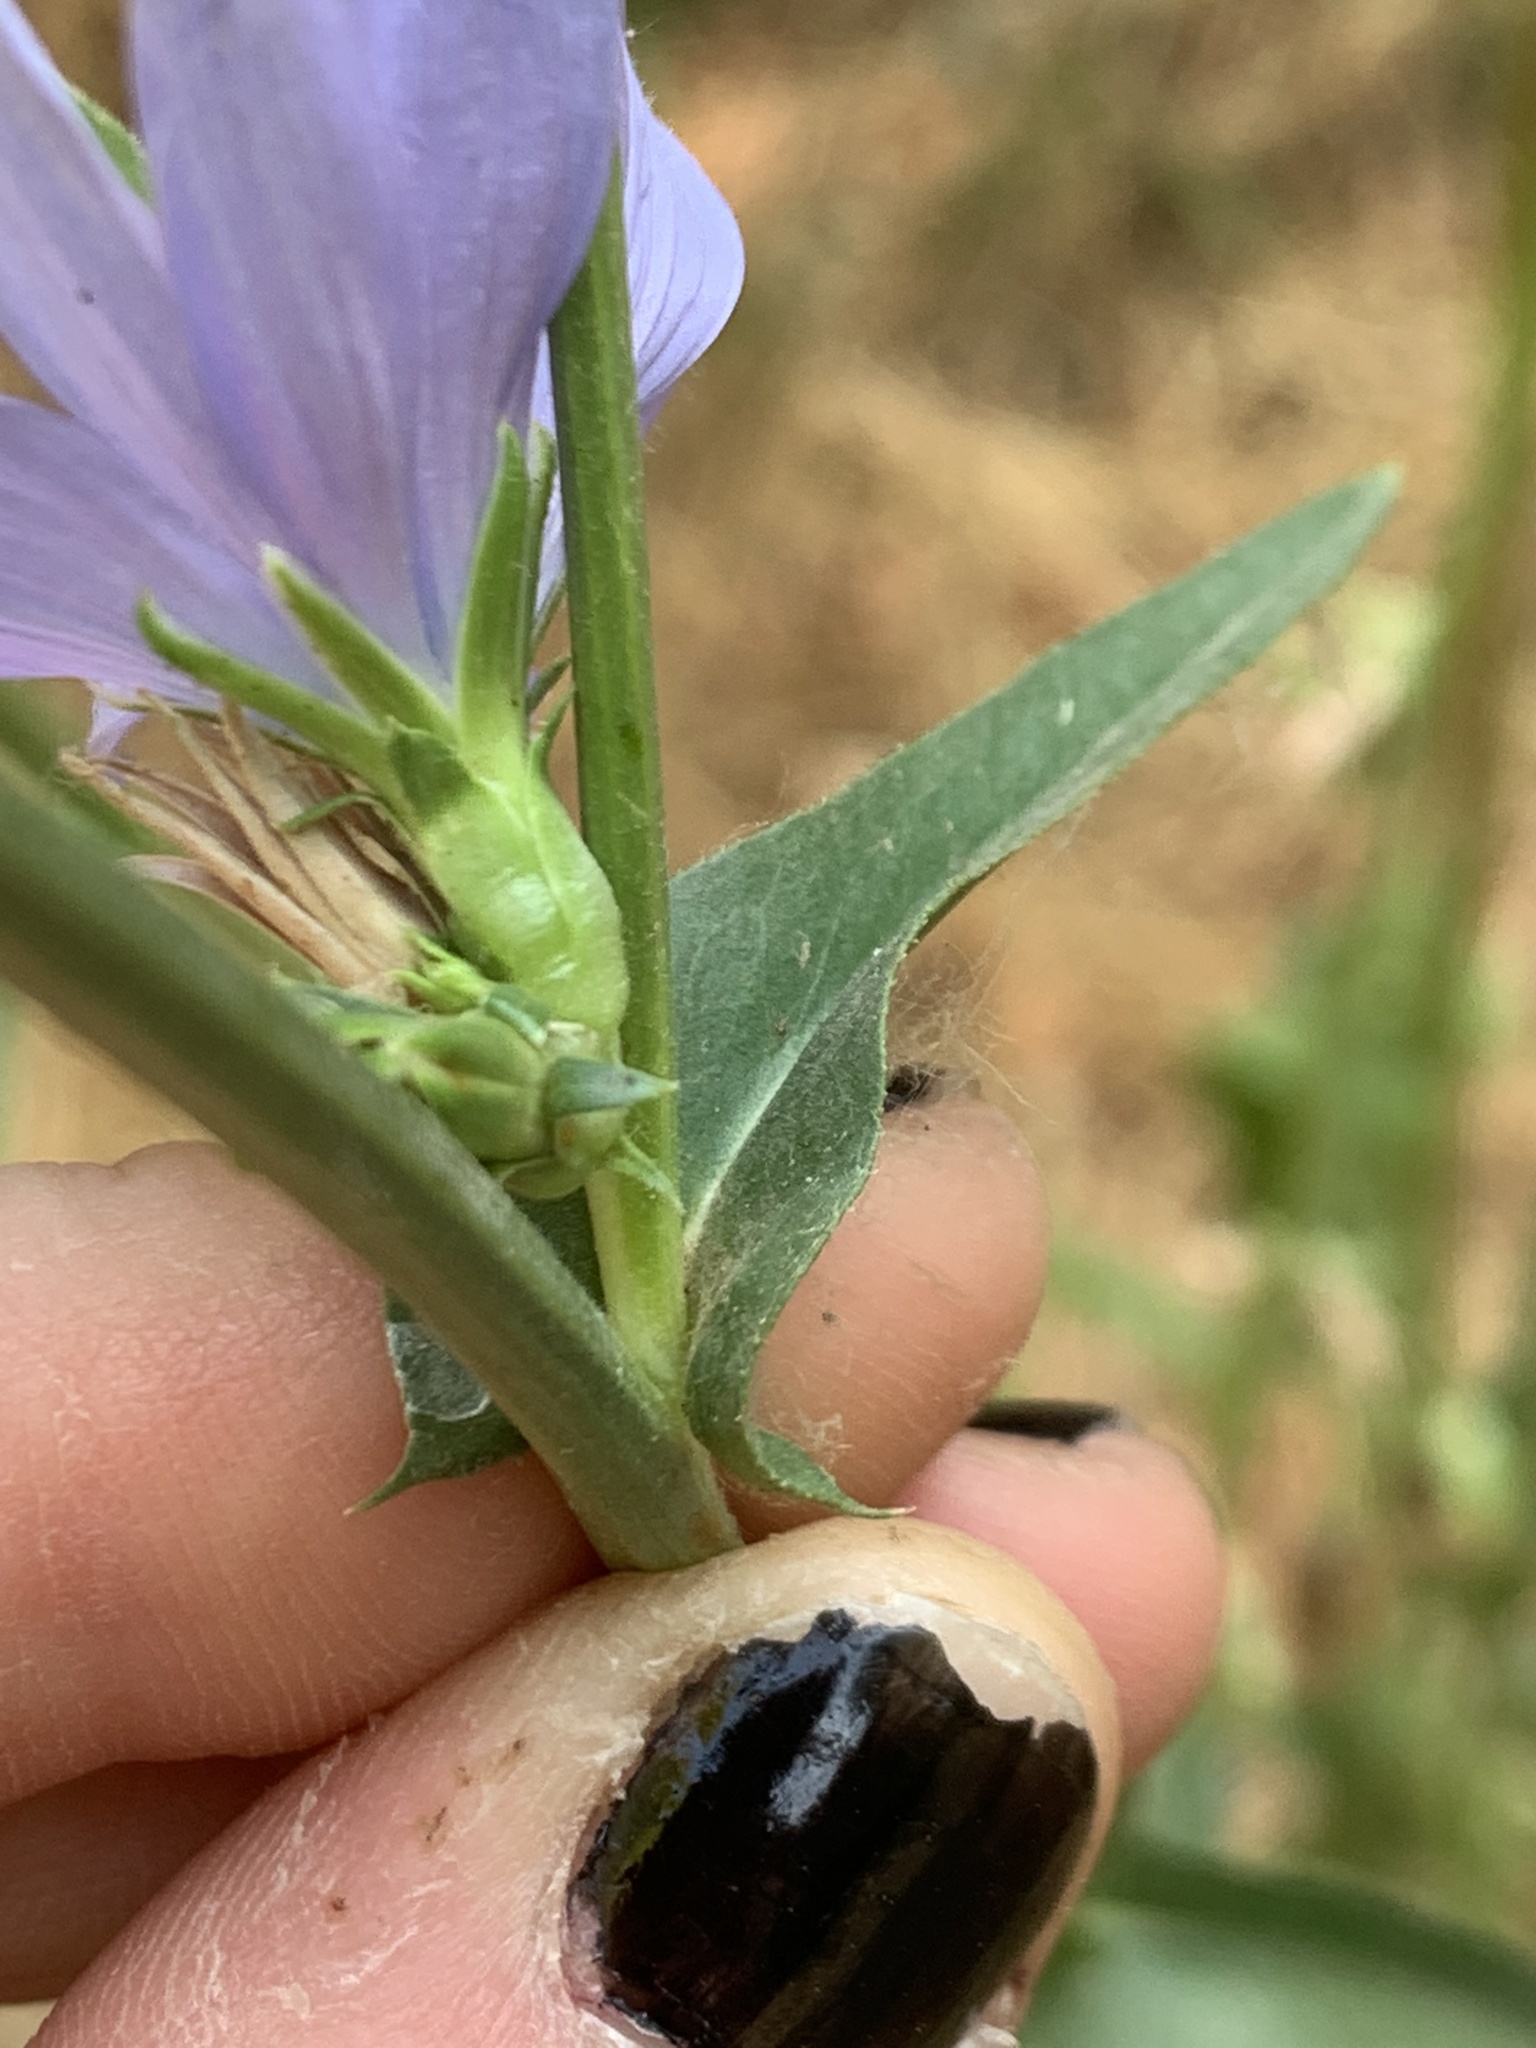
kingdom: Plantae
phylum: Tracheophyta
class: Magnoliopsida
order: Asterales
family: Asteraceae
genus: Cichorium
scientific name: Cichorium intybus
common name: Chicory
